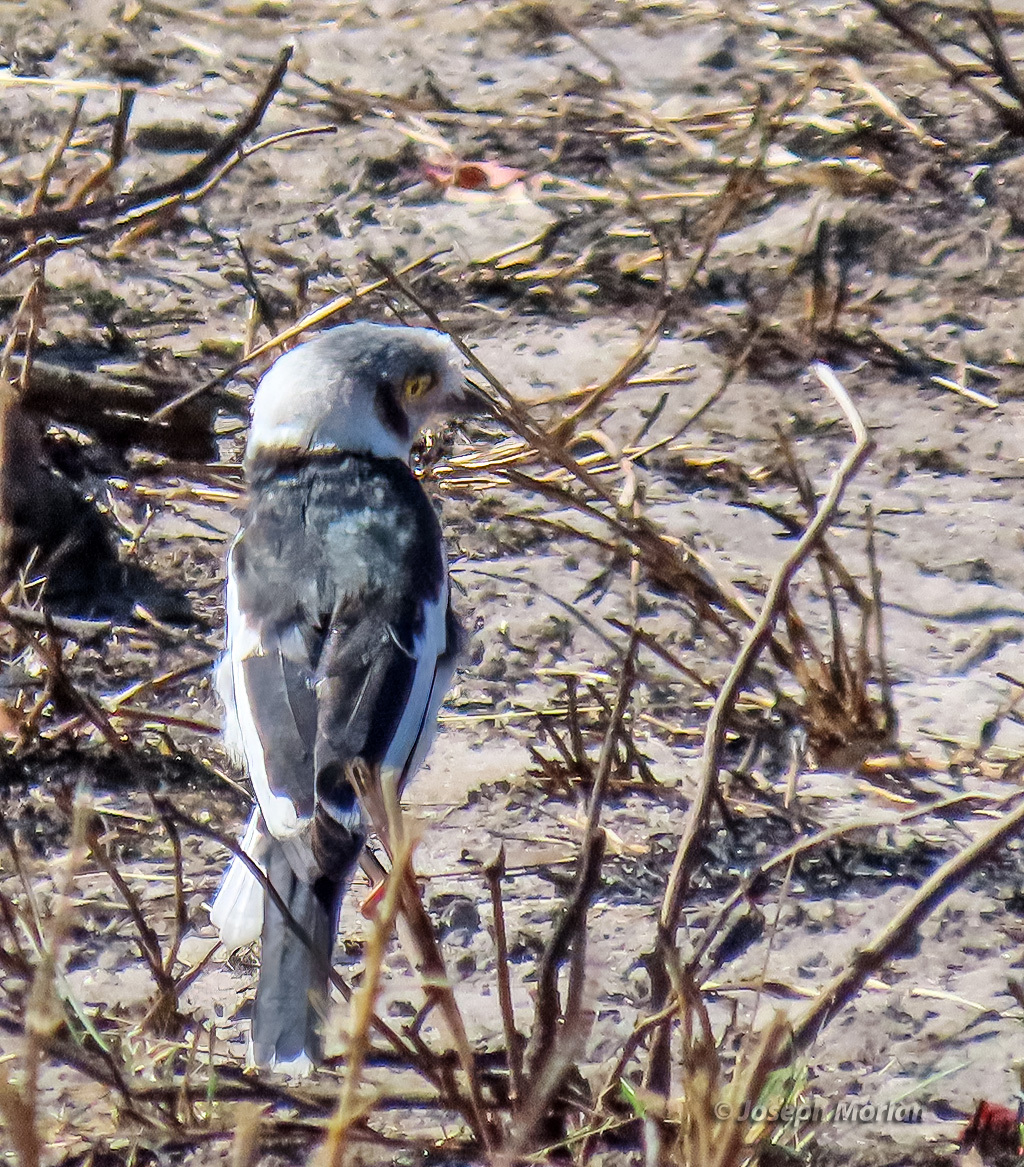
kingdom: Animalia
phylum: Chordata
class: Aves
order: Passeriformes
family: Prionopidae
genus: Prionops
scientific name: Prionops plumatus
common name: White-crested helmetshrike
